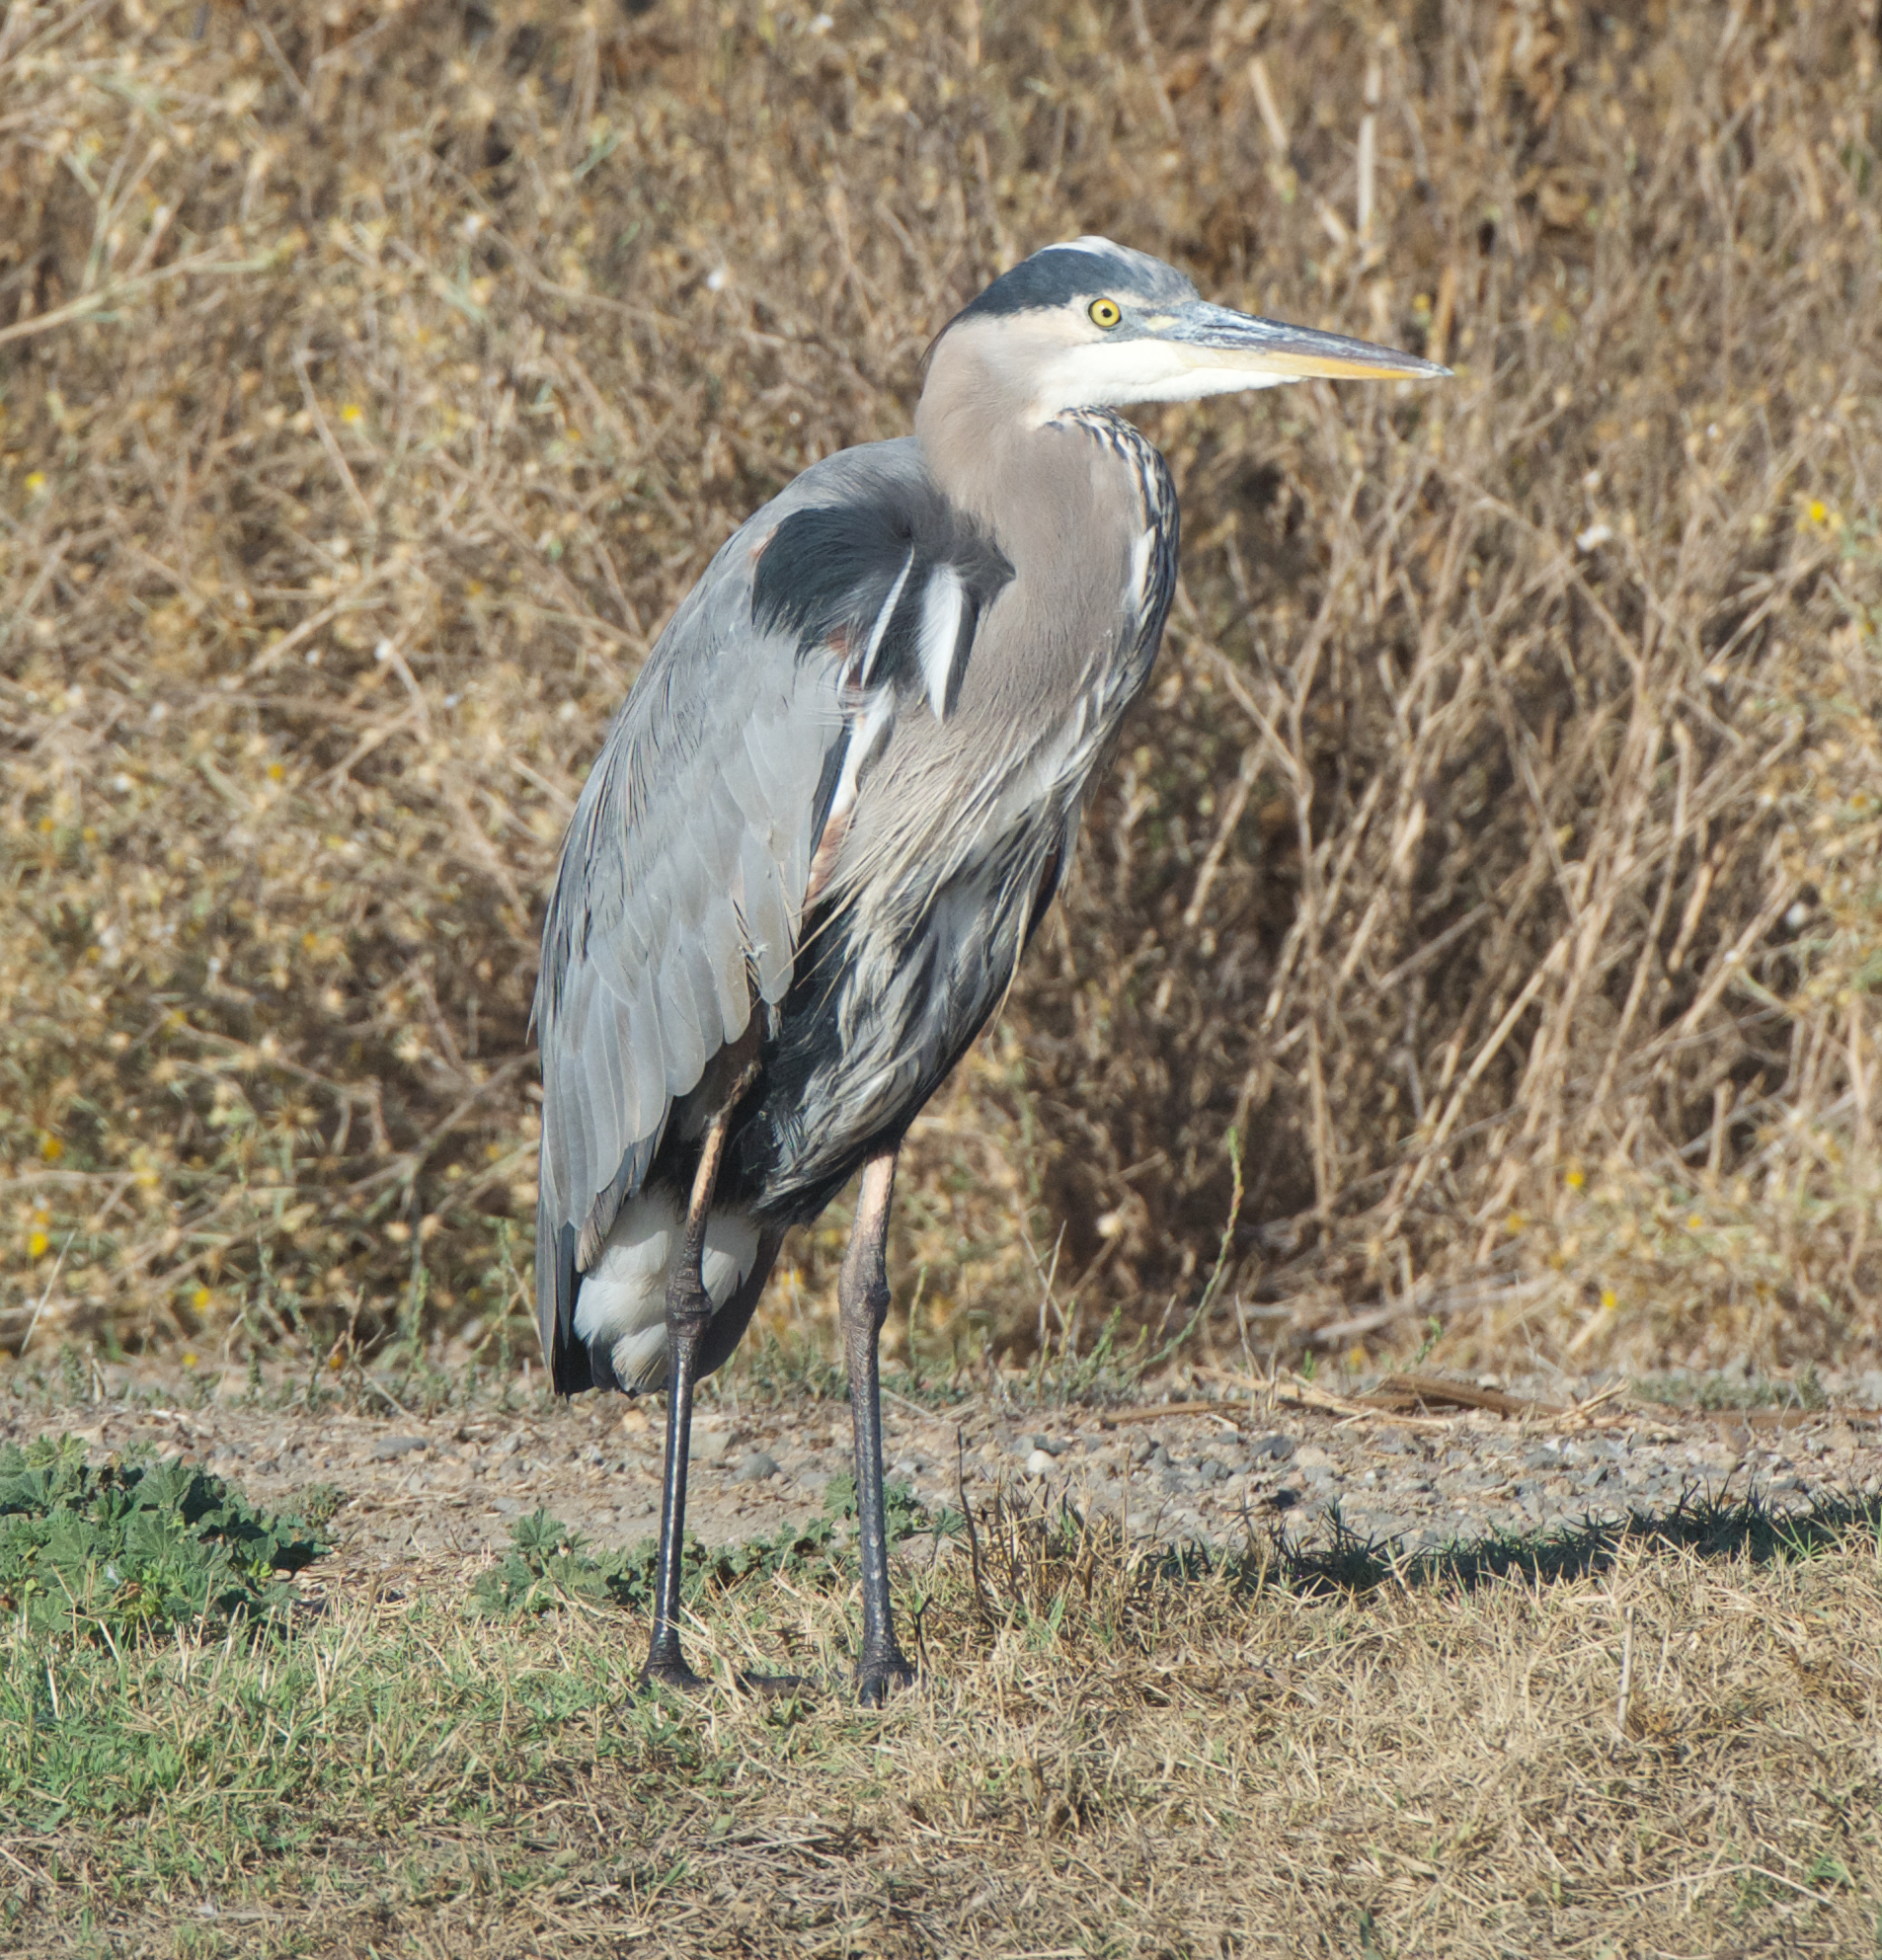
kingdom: Animalia
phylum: Chordata
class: Aves
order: Pelecaniformes
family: Ardeidae
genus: Ardea
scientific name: Ardea herodias
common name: Great blue heron
